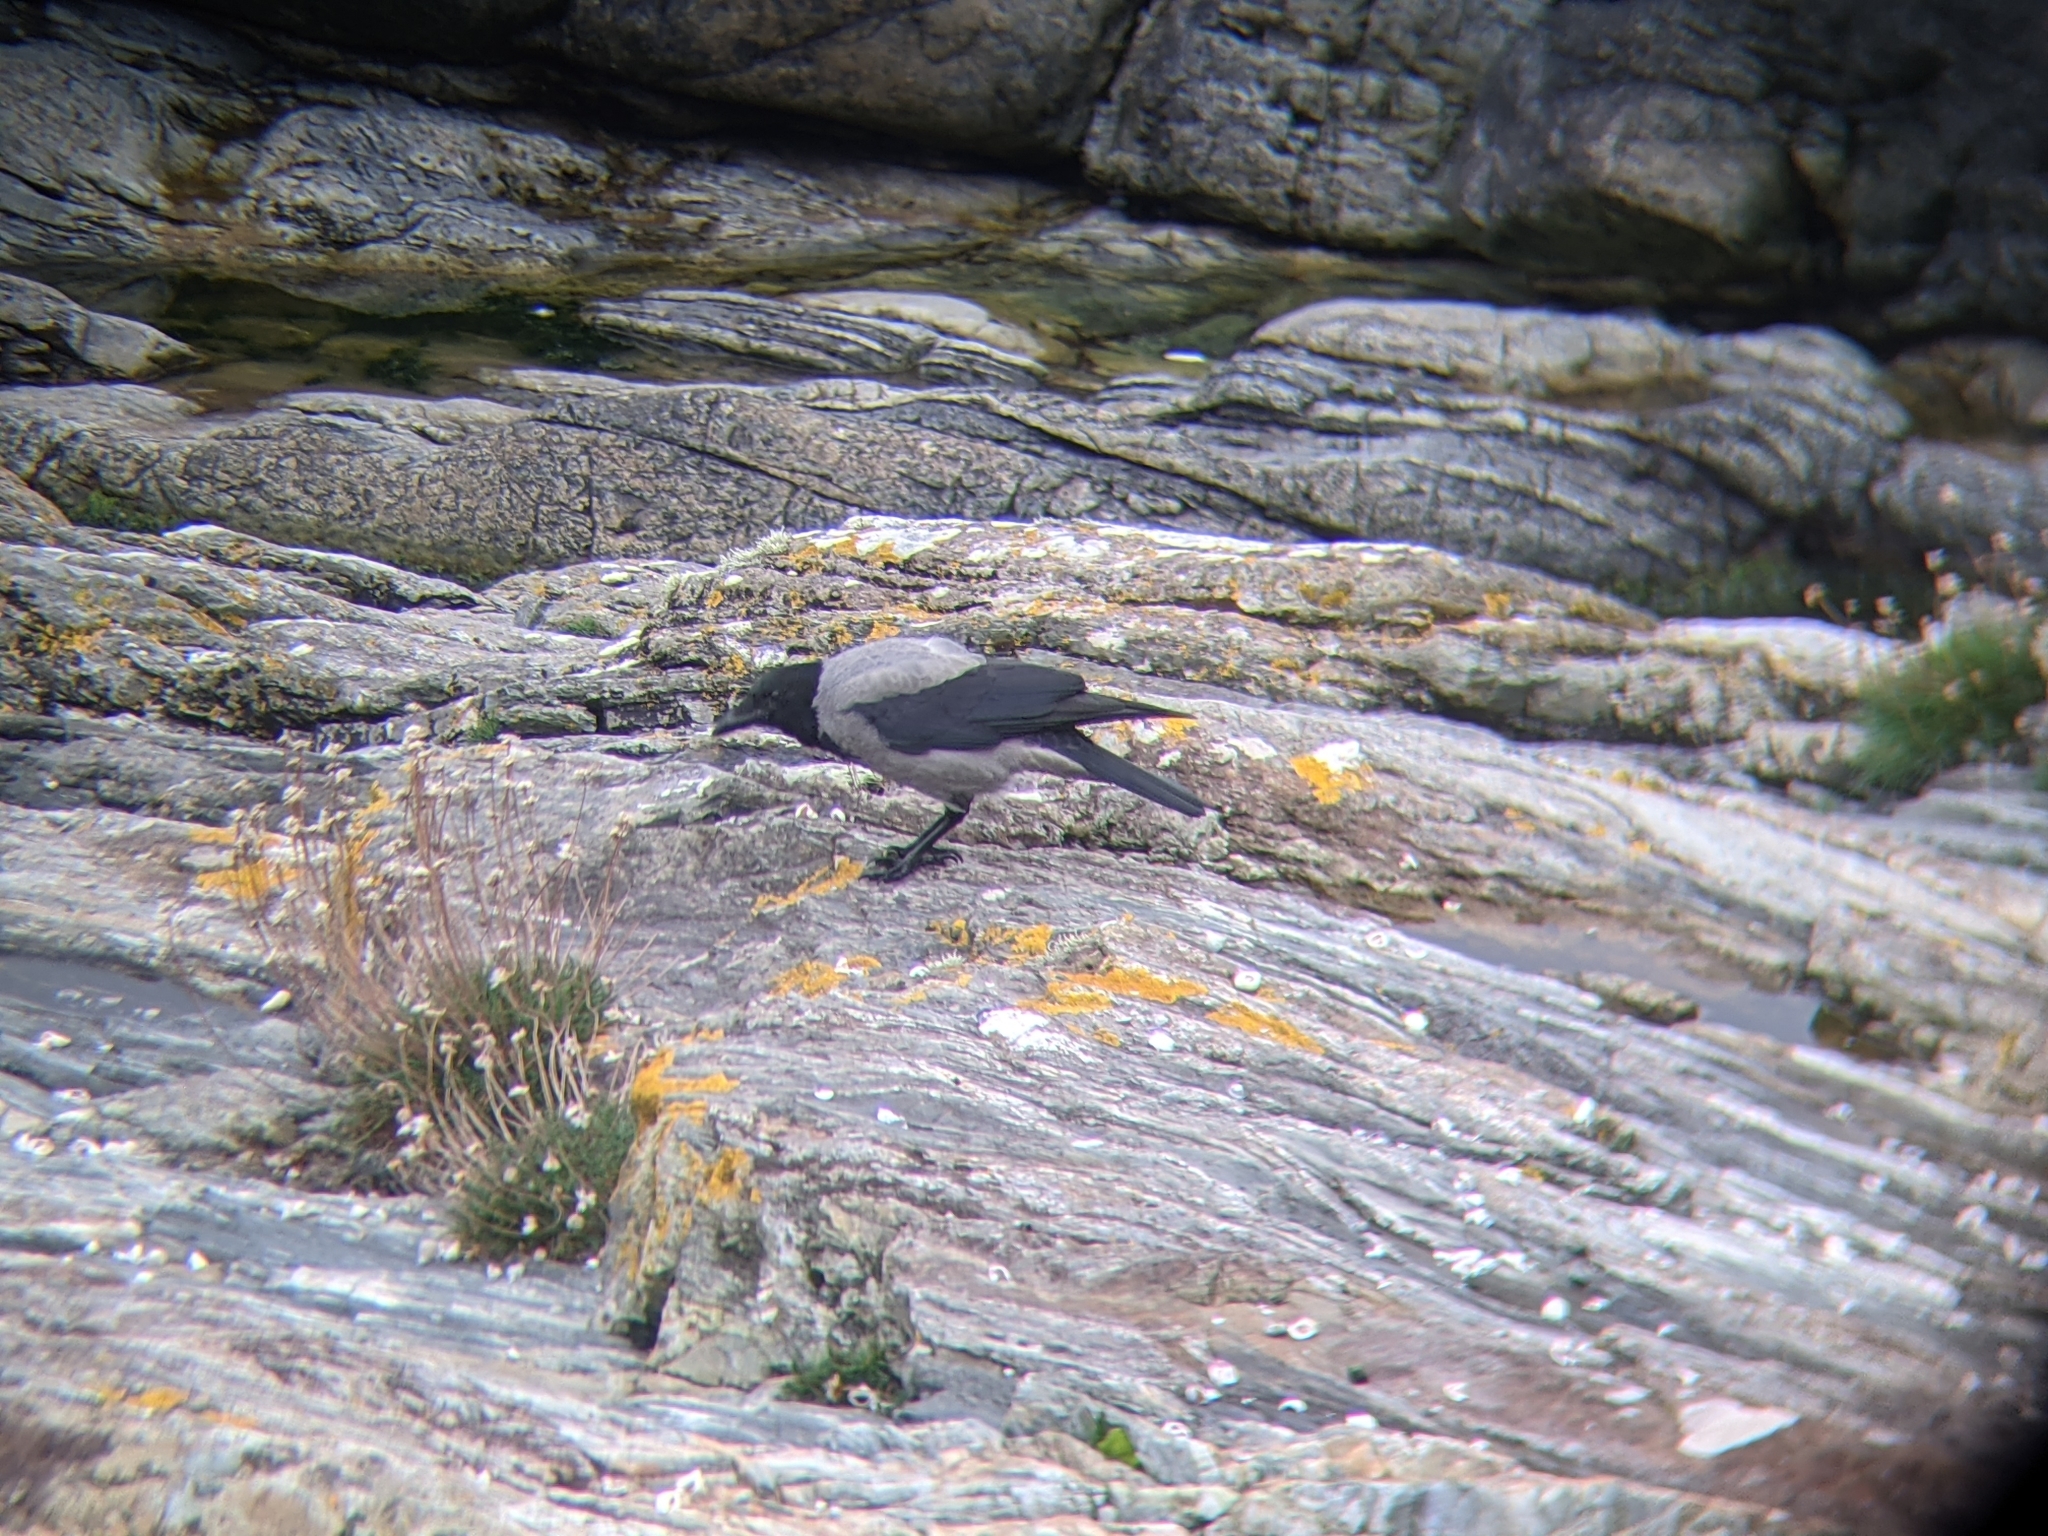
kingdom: Animalia
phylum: Chordata
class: Aves
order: Passeriformes
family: Corvidae
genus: Corvus
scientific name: Corvus cornix
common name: Hooded crow
